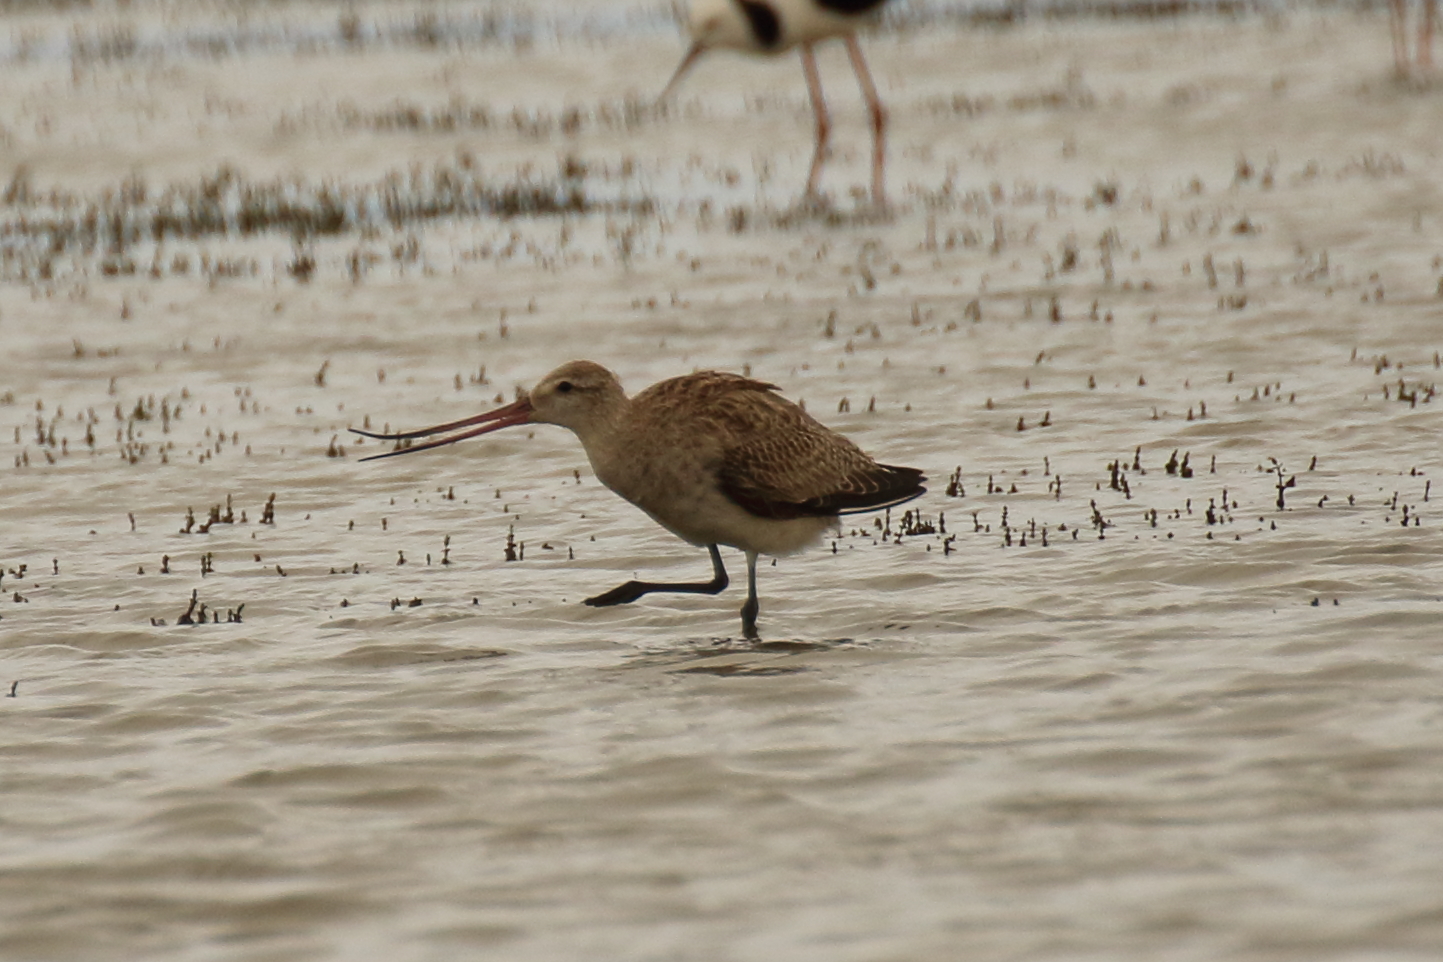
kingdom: Animalia
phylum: Chordata
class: Aves
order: Charadriiformes
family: Scolopacidae
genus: Limosa
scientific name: Limosa lapponica
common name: Bar-tailed godwit
